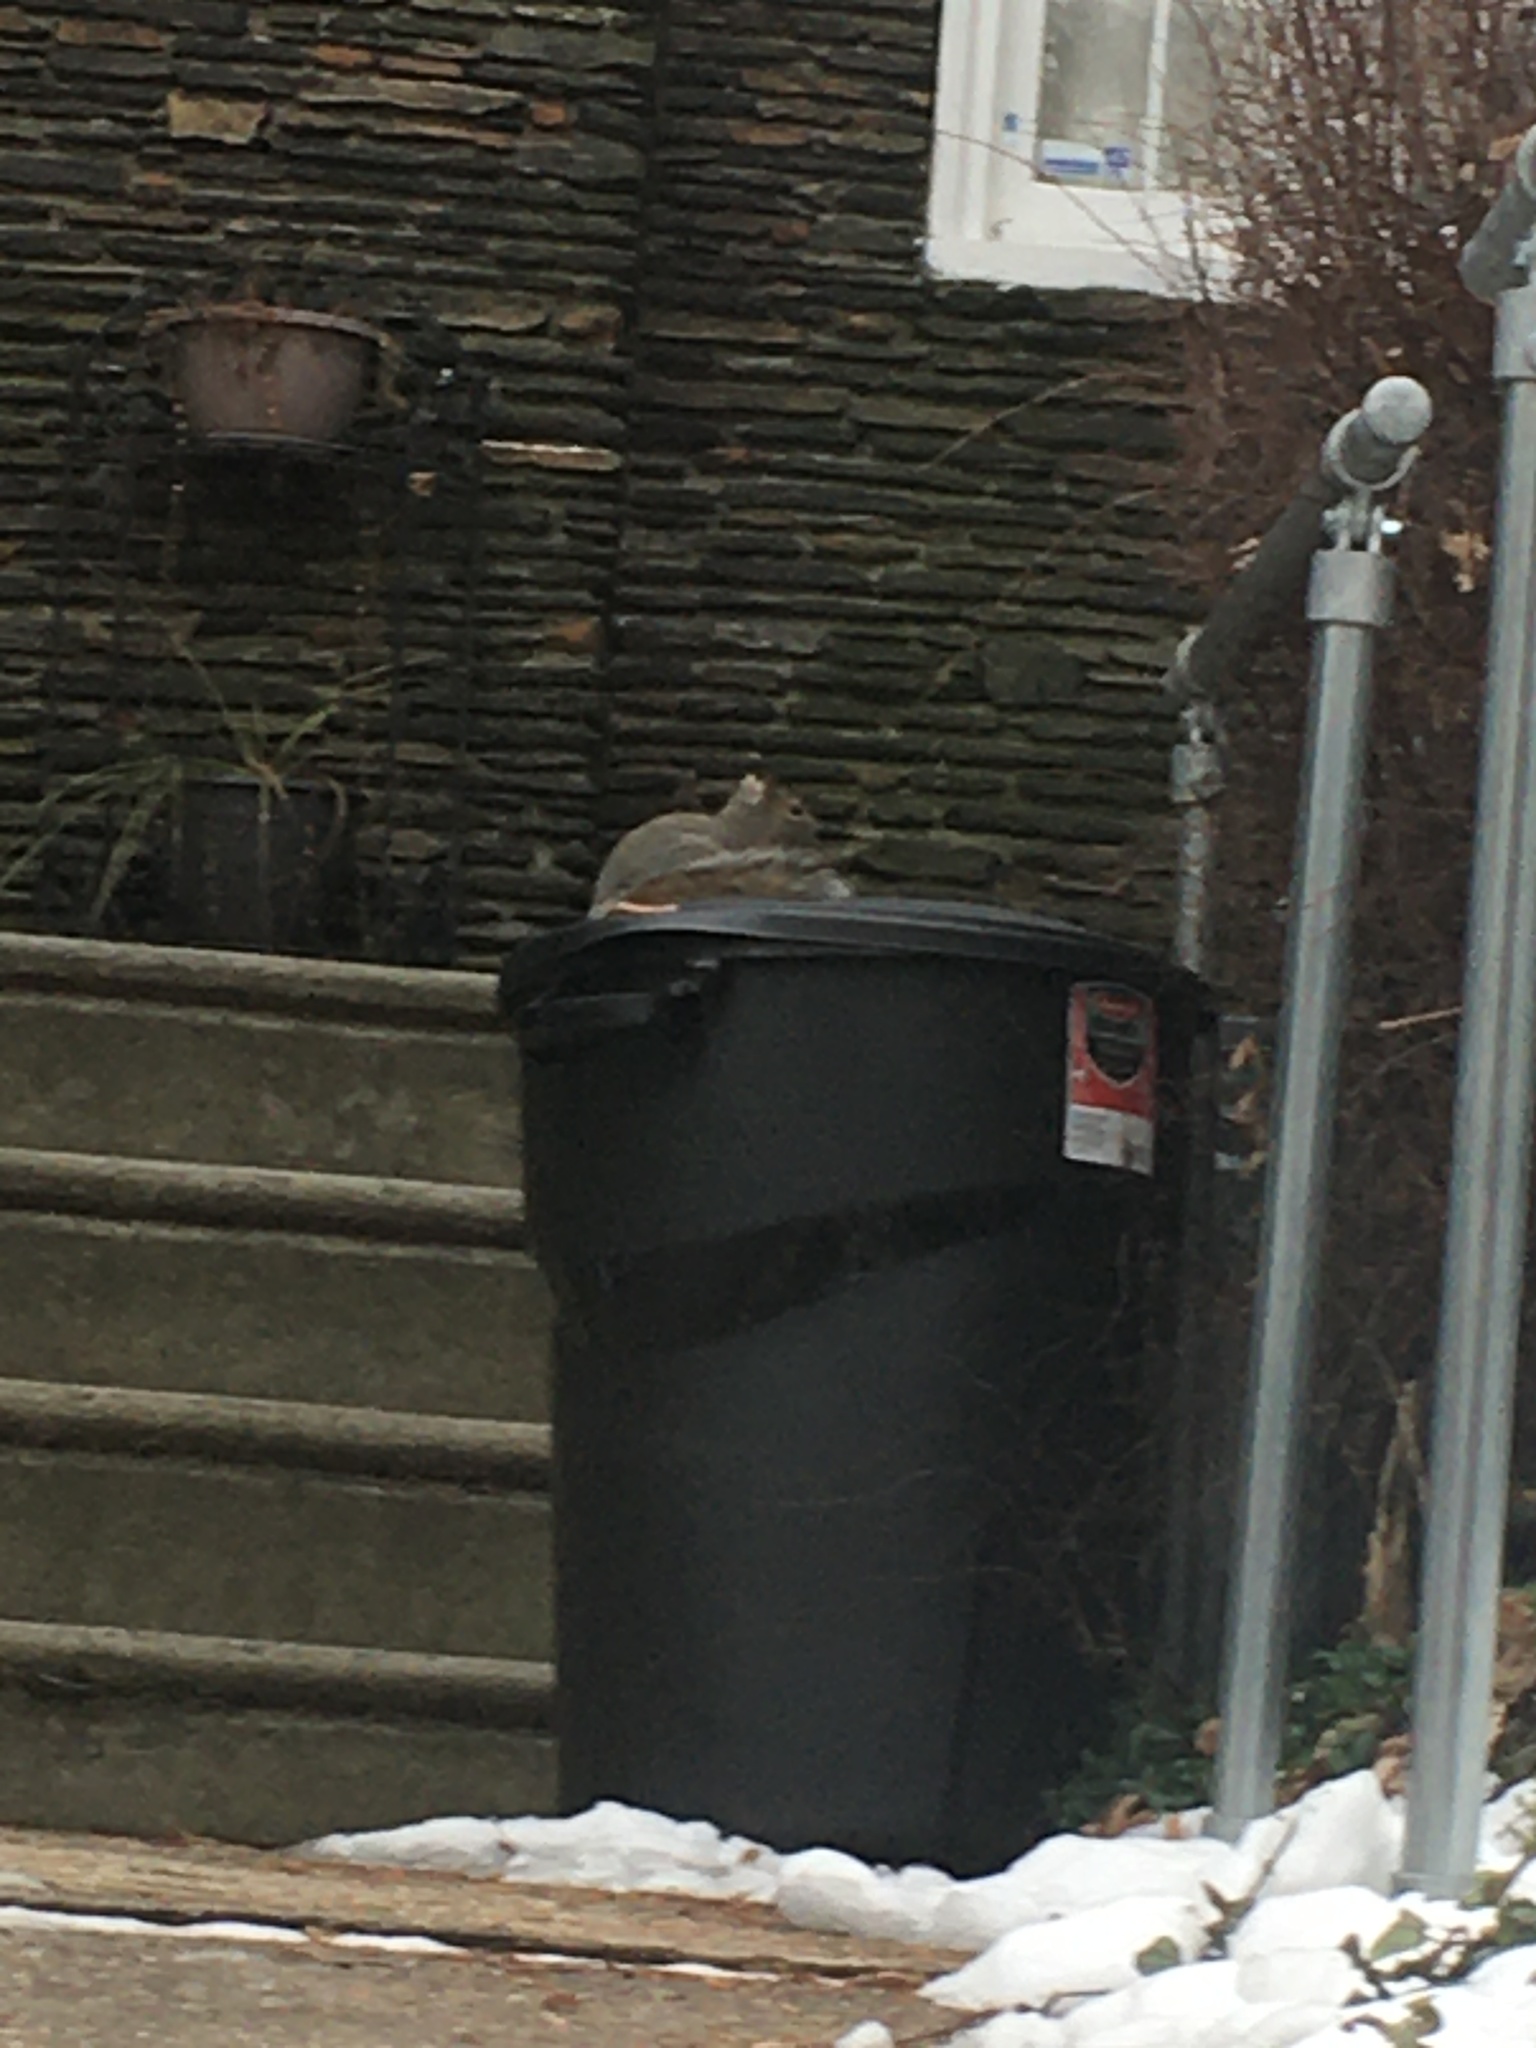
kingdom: Animalia
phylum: Chordata
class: Mammalia
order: Rodentia
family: Sciuridae
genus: Sciurus
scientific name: Sciurus carolinensis
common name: Eastern gray squirrel
